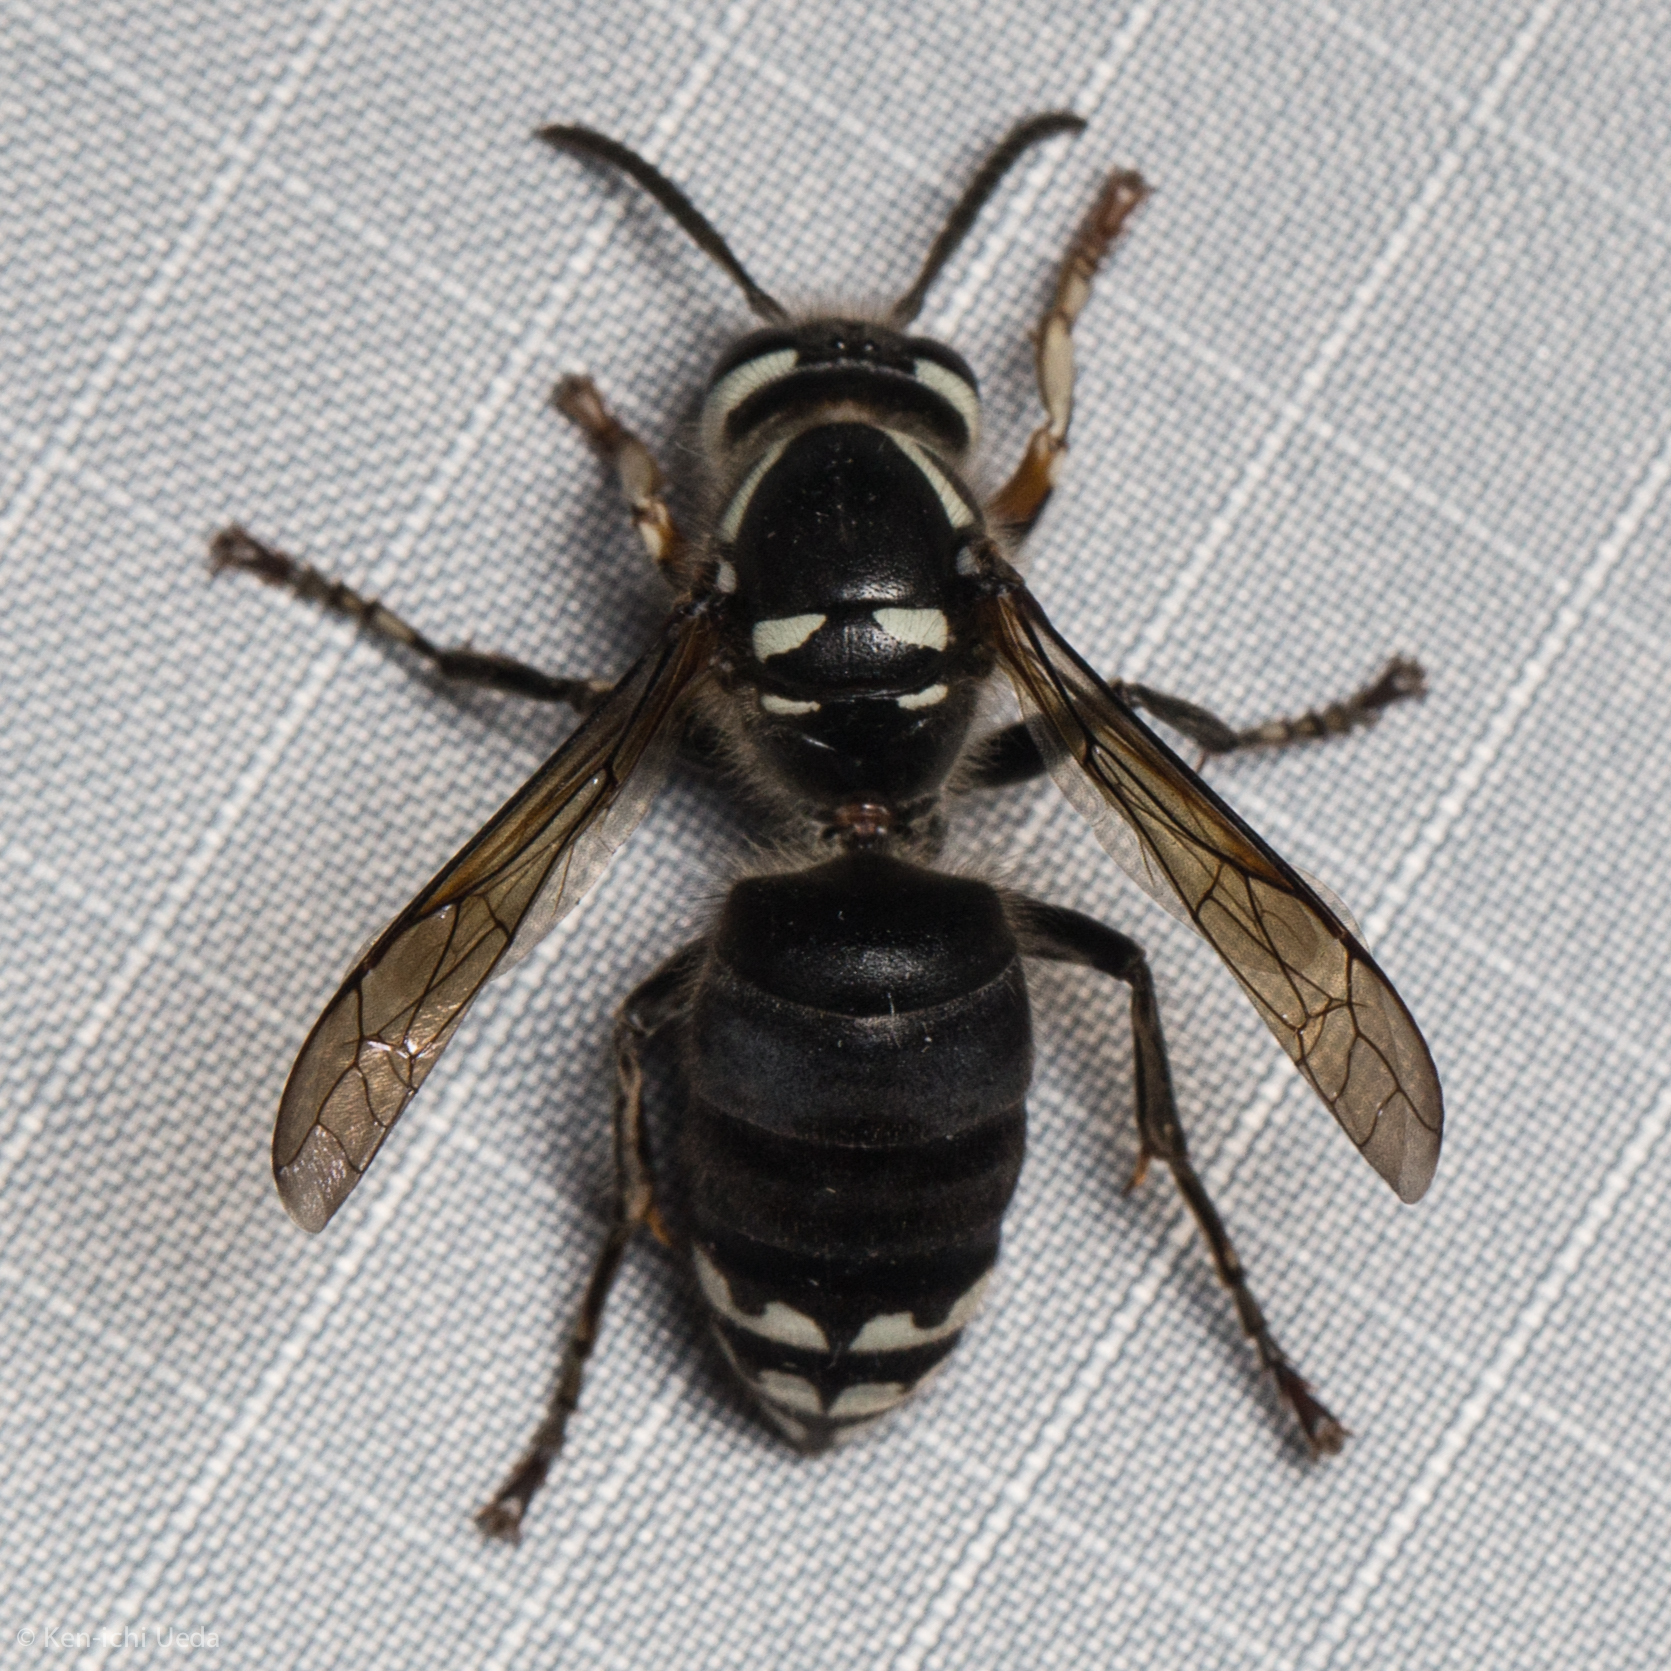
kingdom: Animalia
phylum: Arthropoda
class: Insecta
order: Hymenoptera
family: Vespidae
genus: Dolichovespula
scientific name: Dolichovespula maculata
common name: Bald-faced hornet
